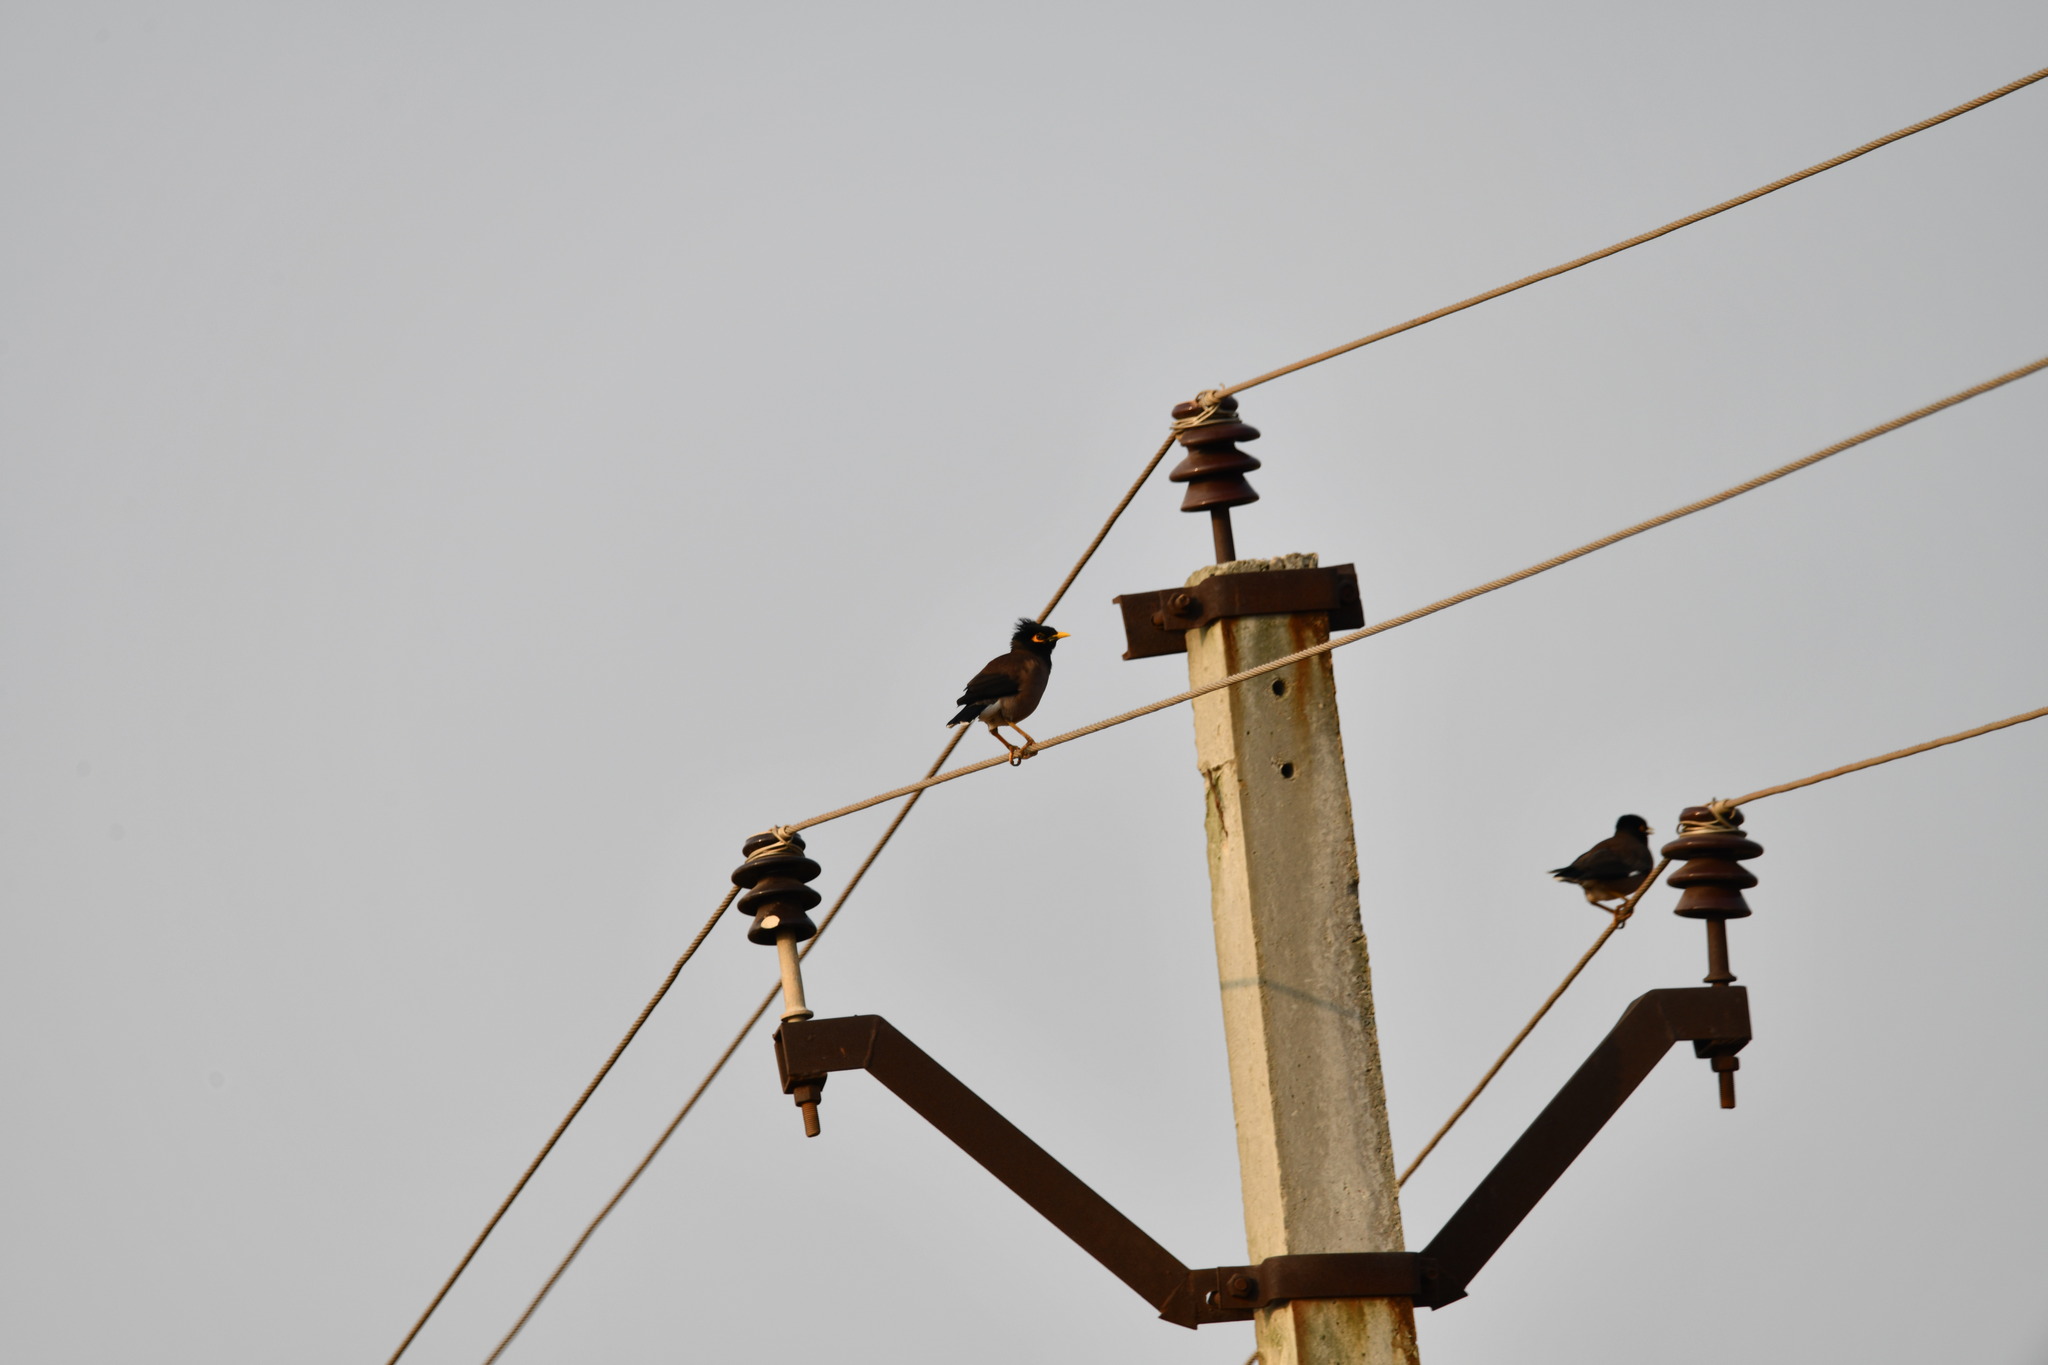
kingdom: Animalia
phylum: Chordata
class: Aves
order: Passeriformes
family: Sturnidae
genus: Acridotheres
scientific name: Acridotheres tristis
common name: Common myna
